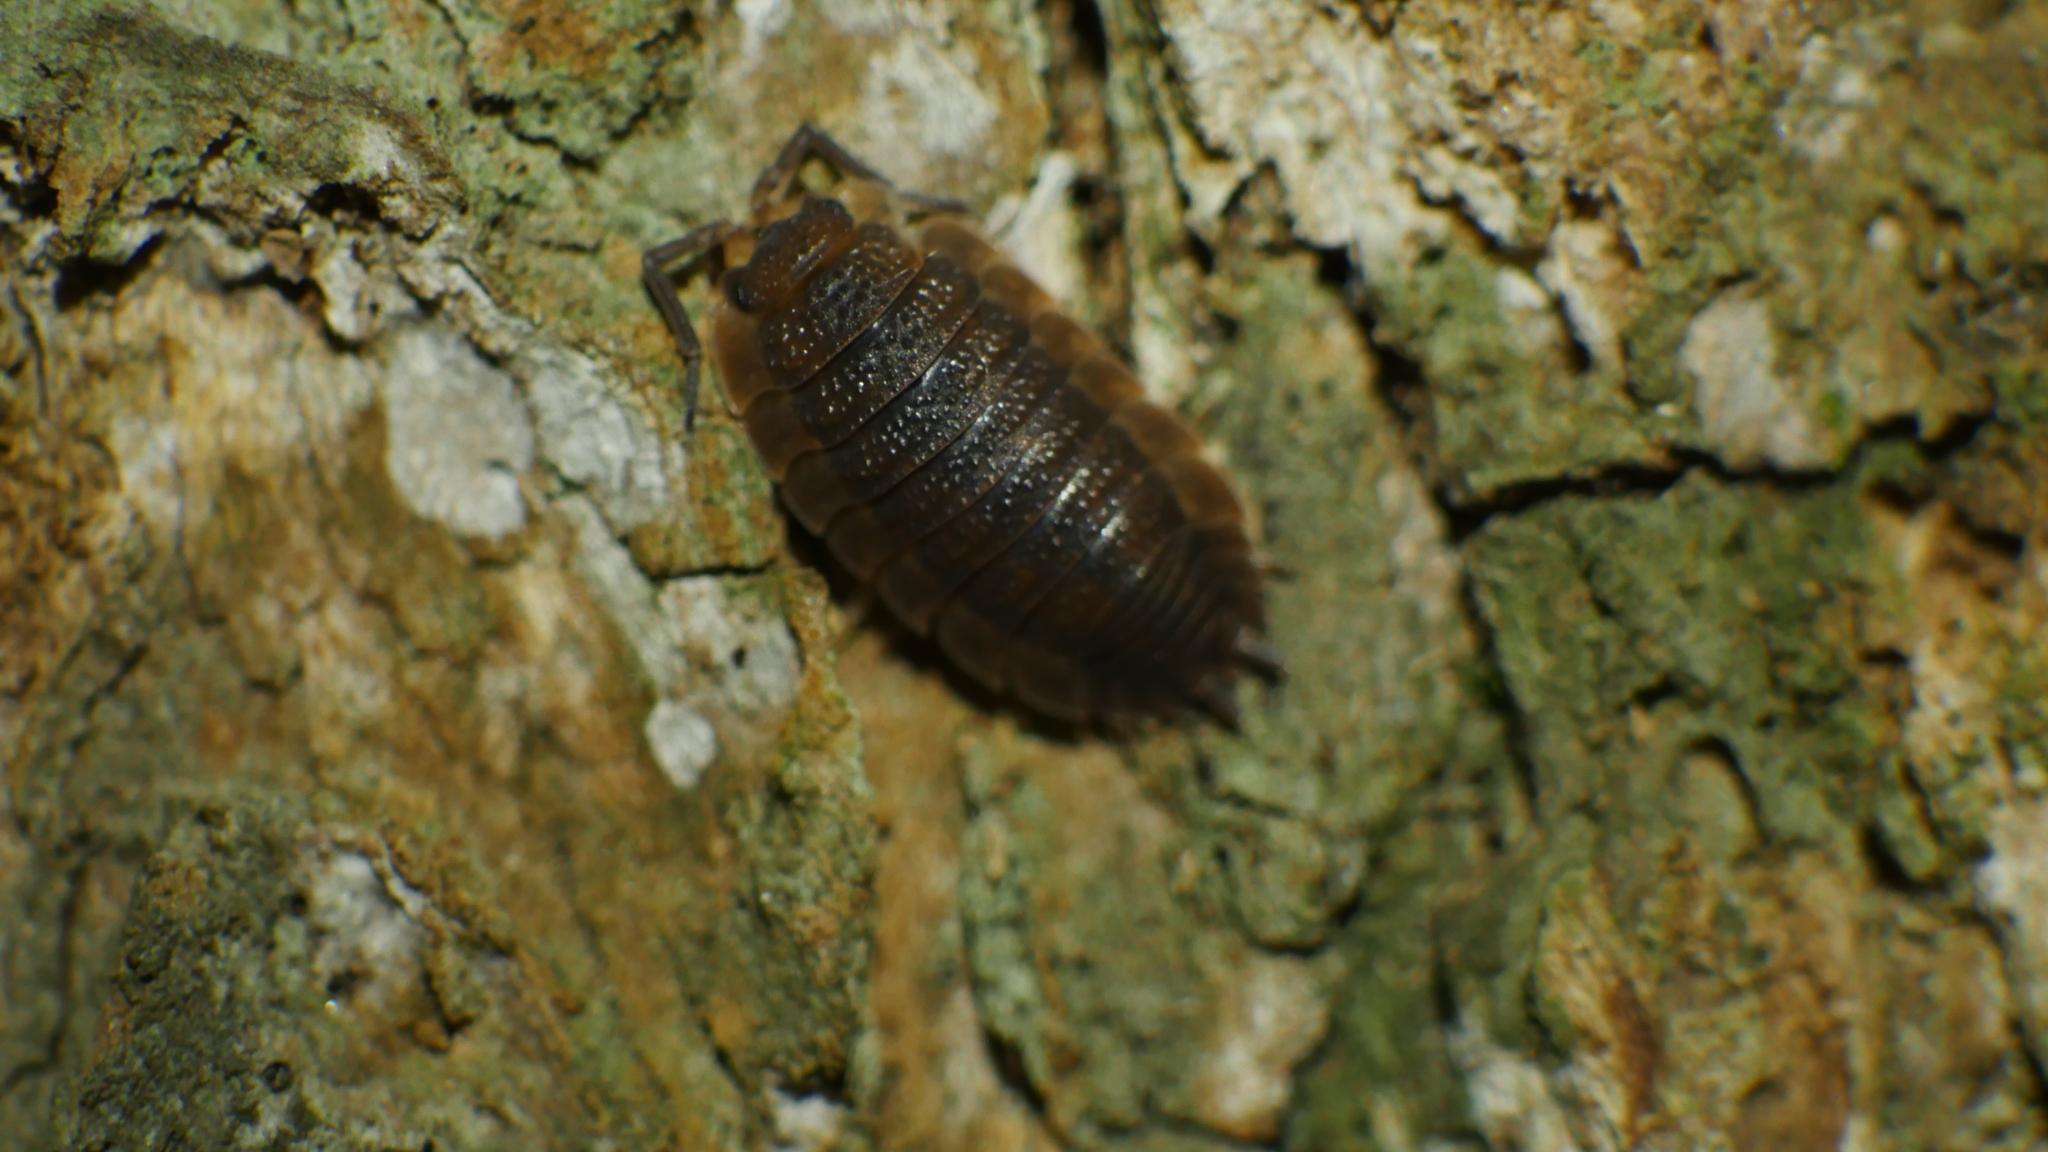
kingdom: Animalia
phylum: Arthropoda
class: Malacostraca
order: Isopoda
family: Porcellionidae
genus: Porcellio
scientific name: Porcellio scaber
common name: Common rough woodlouse
